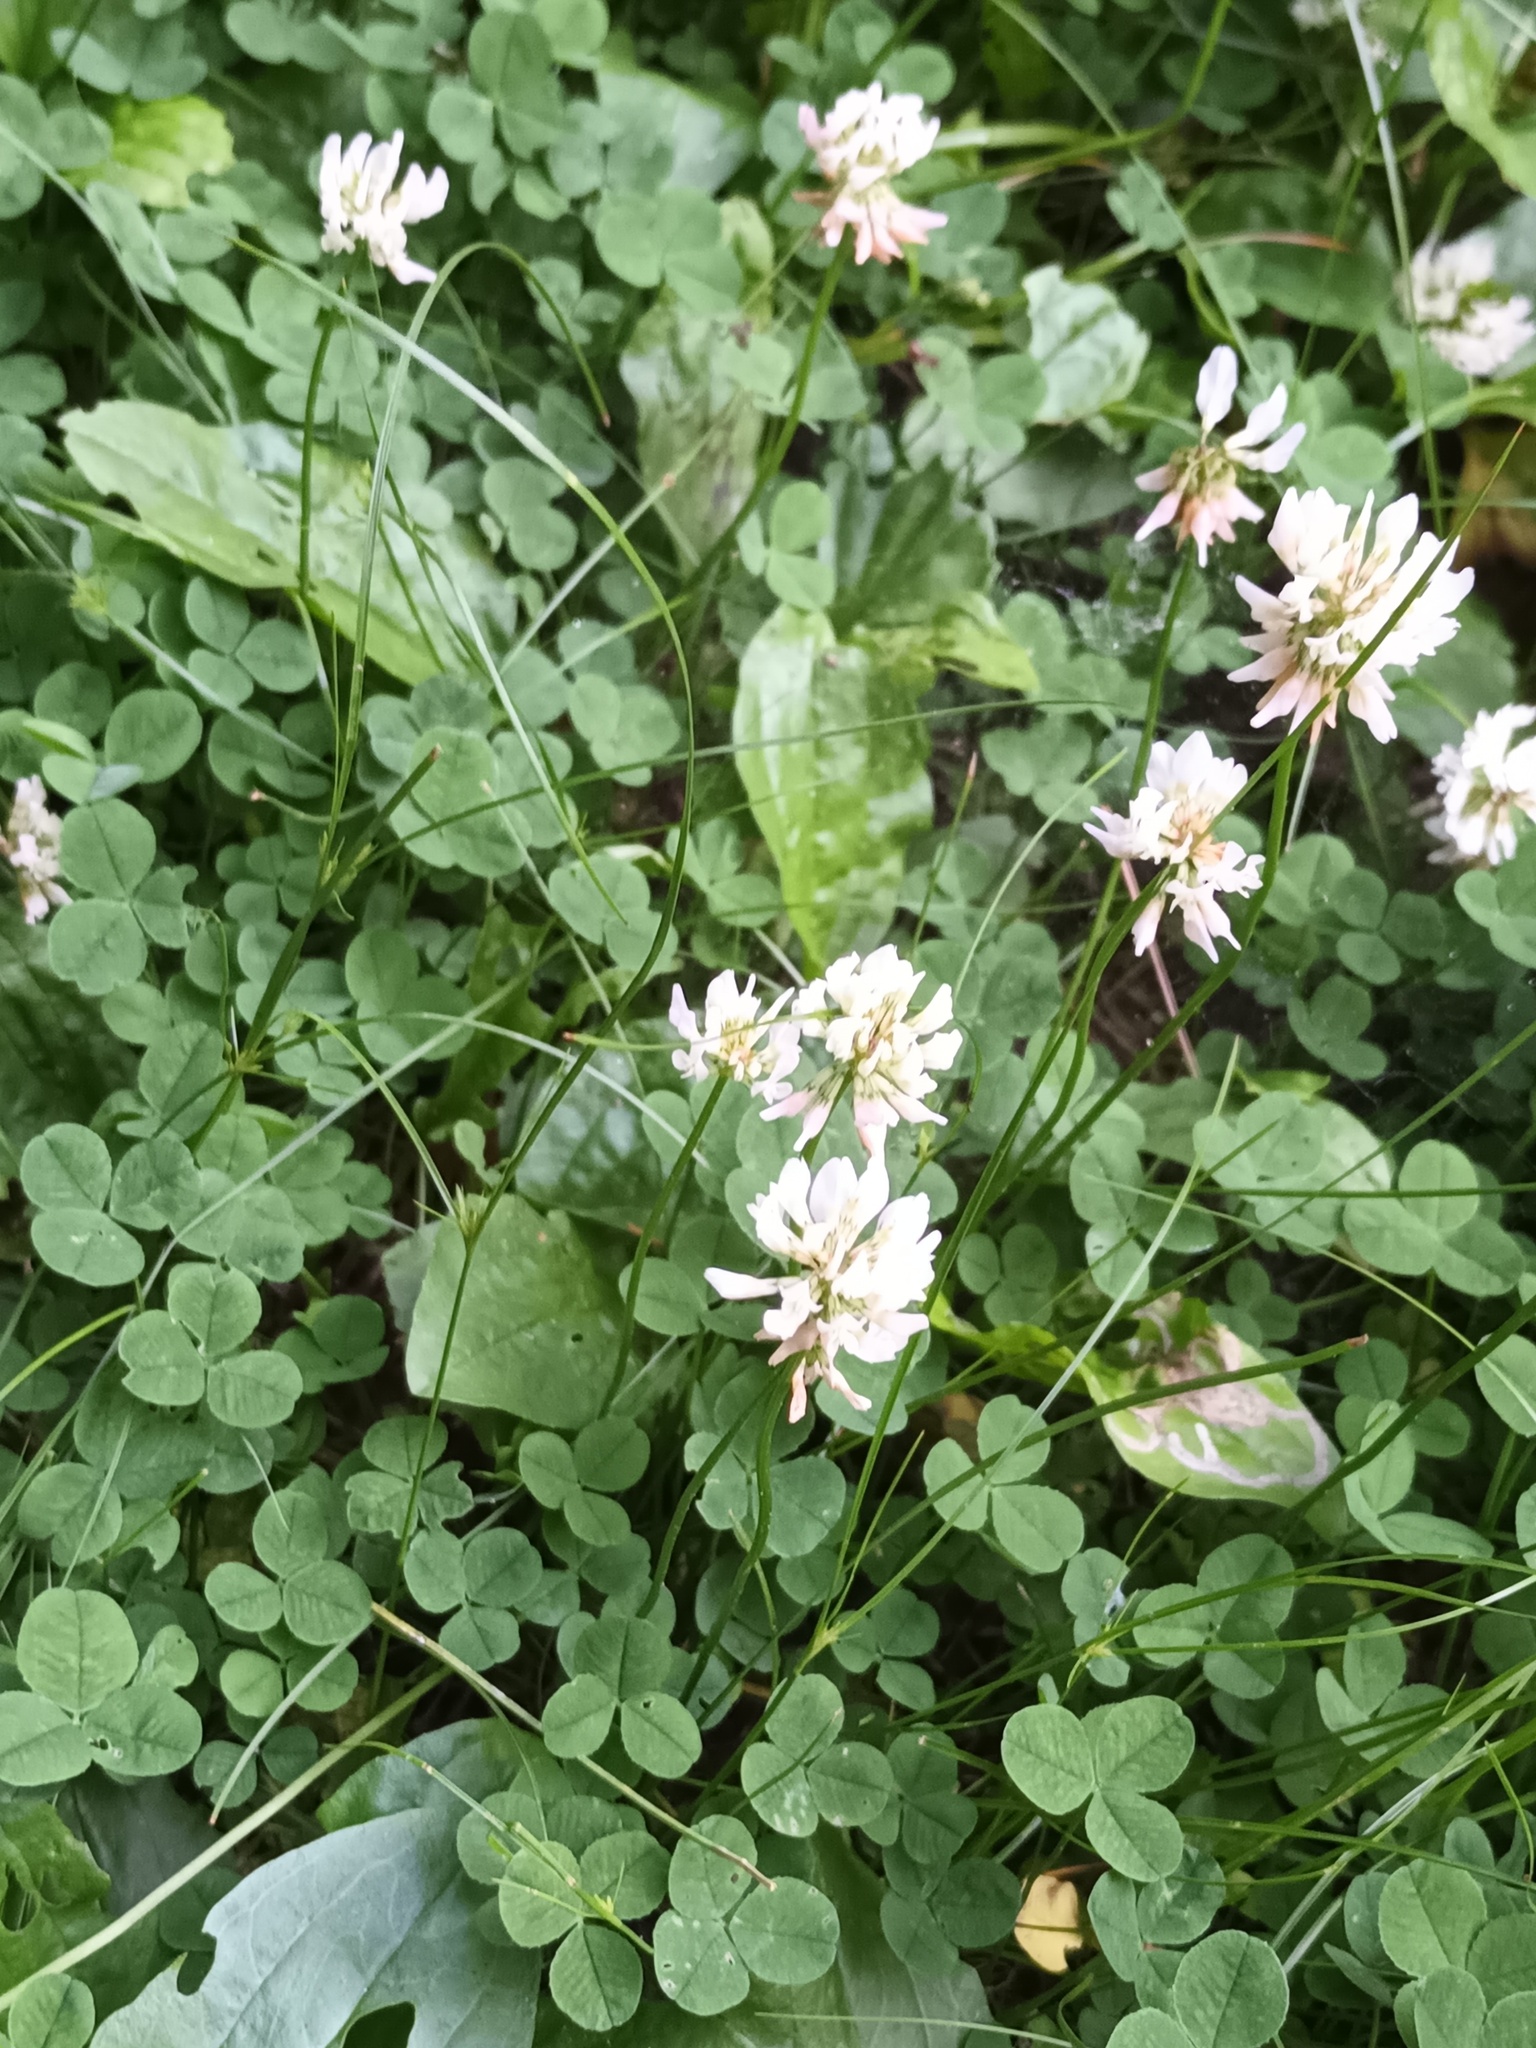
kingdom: Plantae
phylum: Tracheophyta
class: Magnoliopsida
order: Fabales
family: Fabaceae
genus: Trifolium
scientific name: Trifolium repens
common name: White clover
